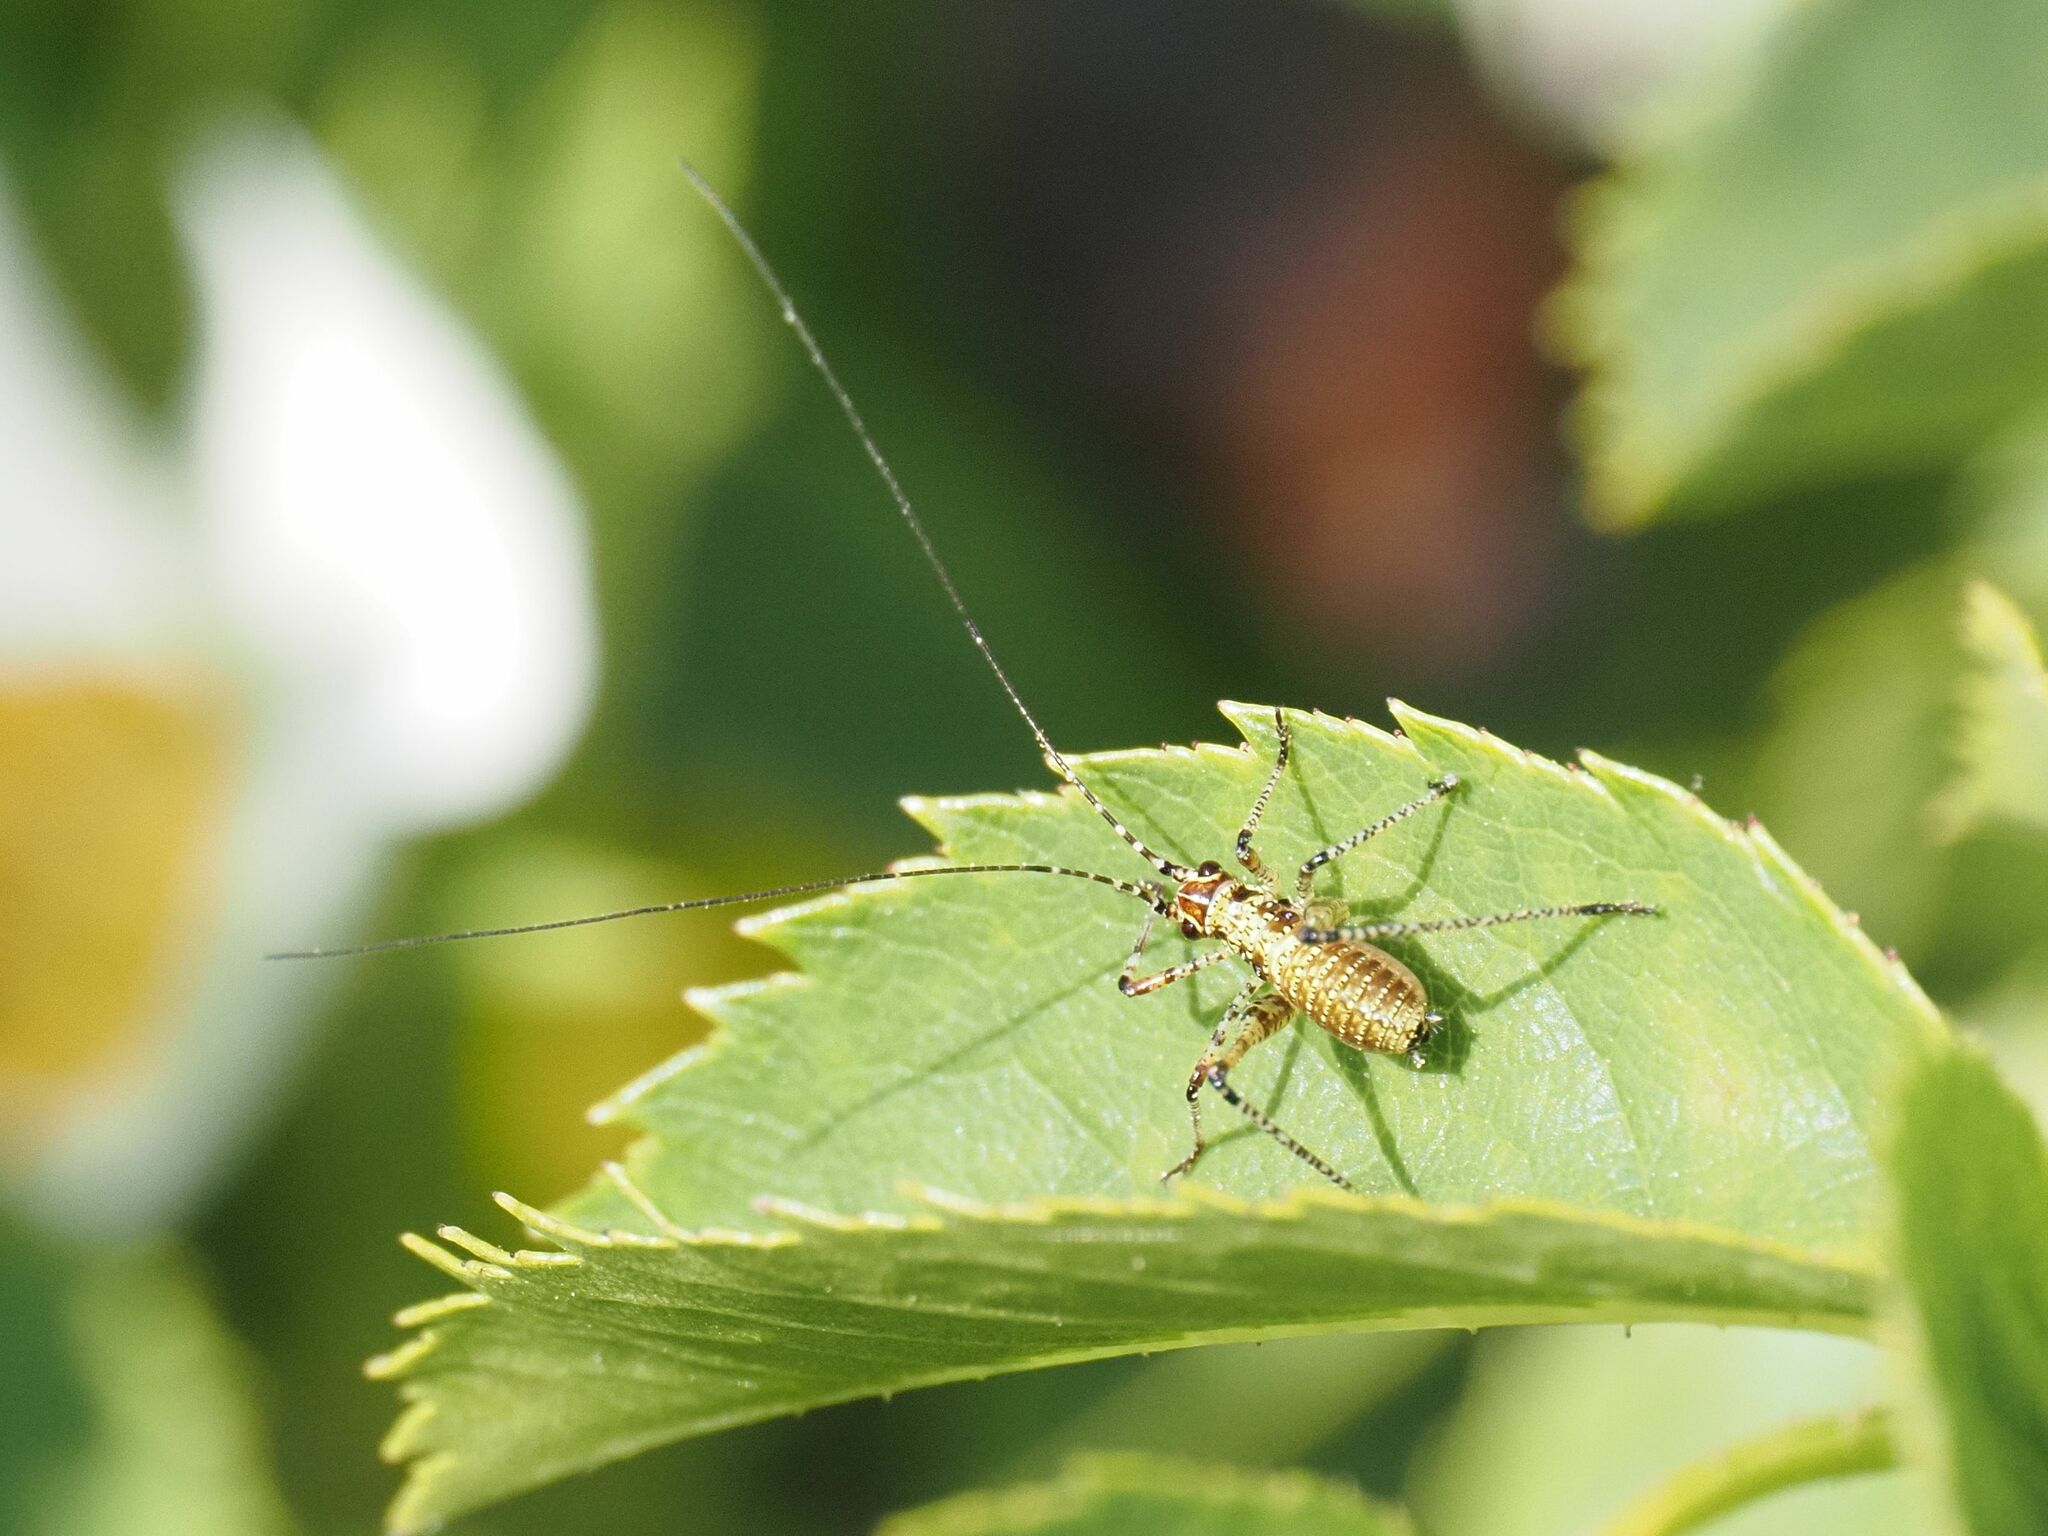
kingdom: Animalia
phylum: Arthropoda
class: Insecta
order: Orthoptera
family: Tettigoniidae
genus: Phaneroptera
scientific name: Phaneroptera nana
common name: Southern sickle bush-cricket
